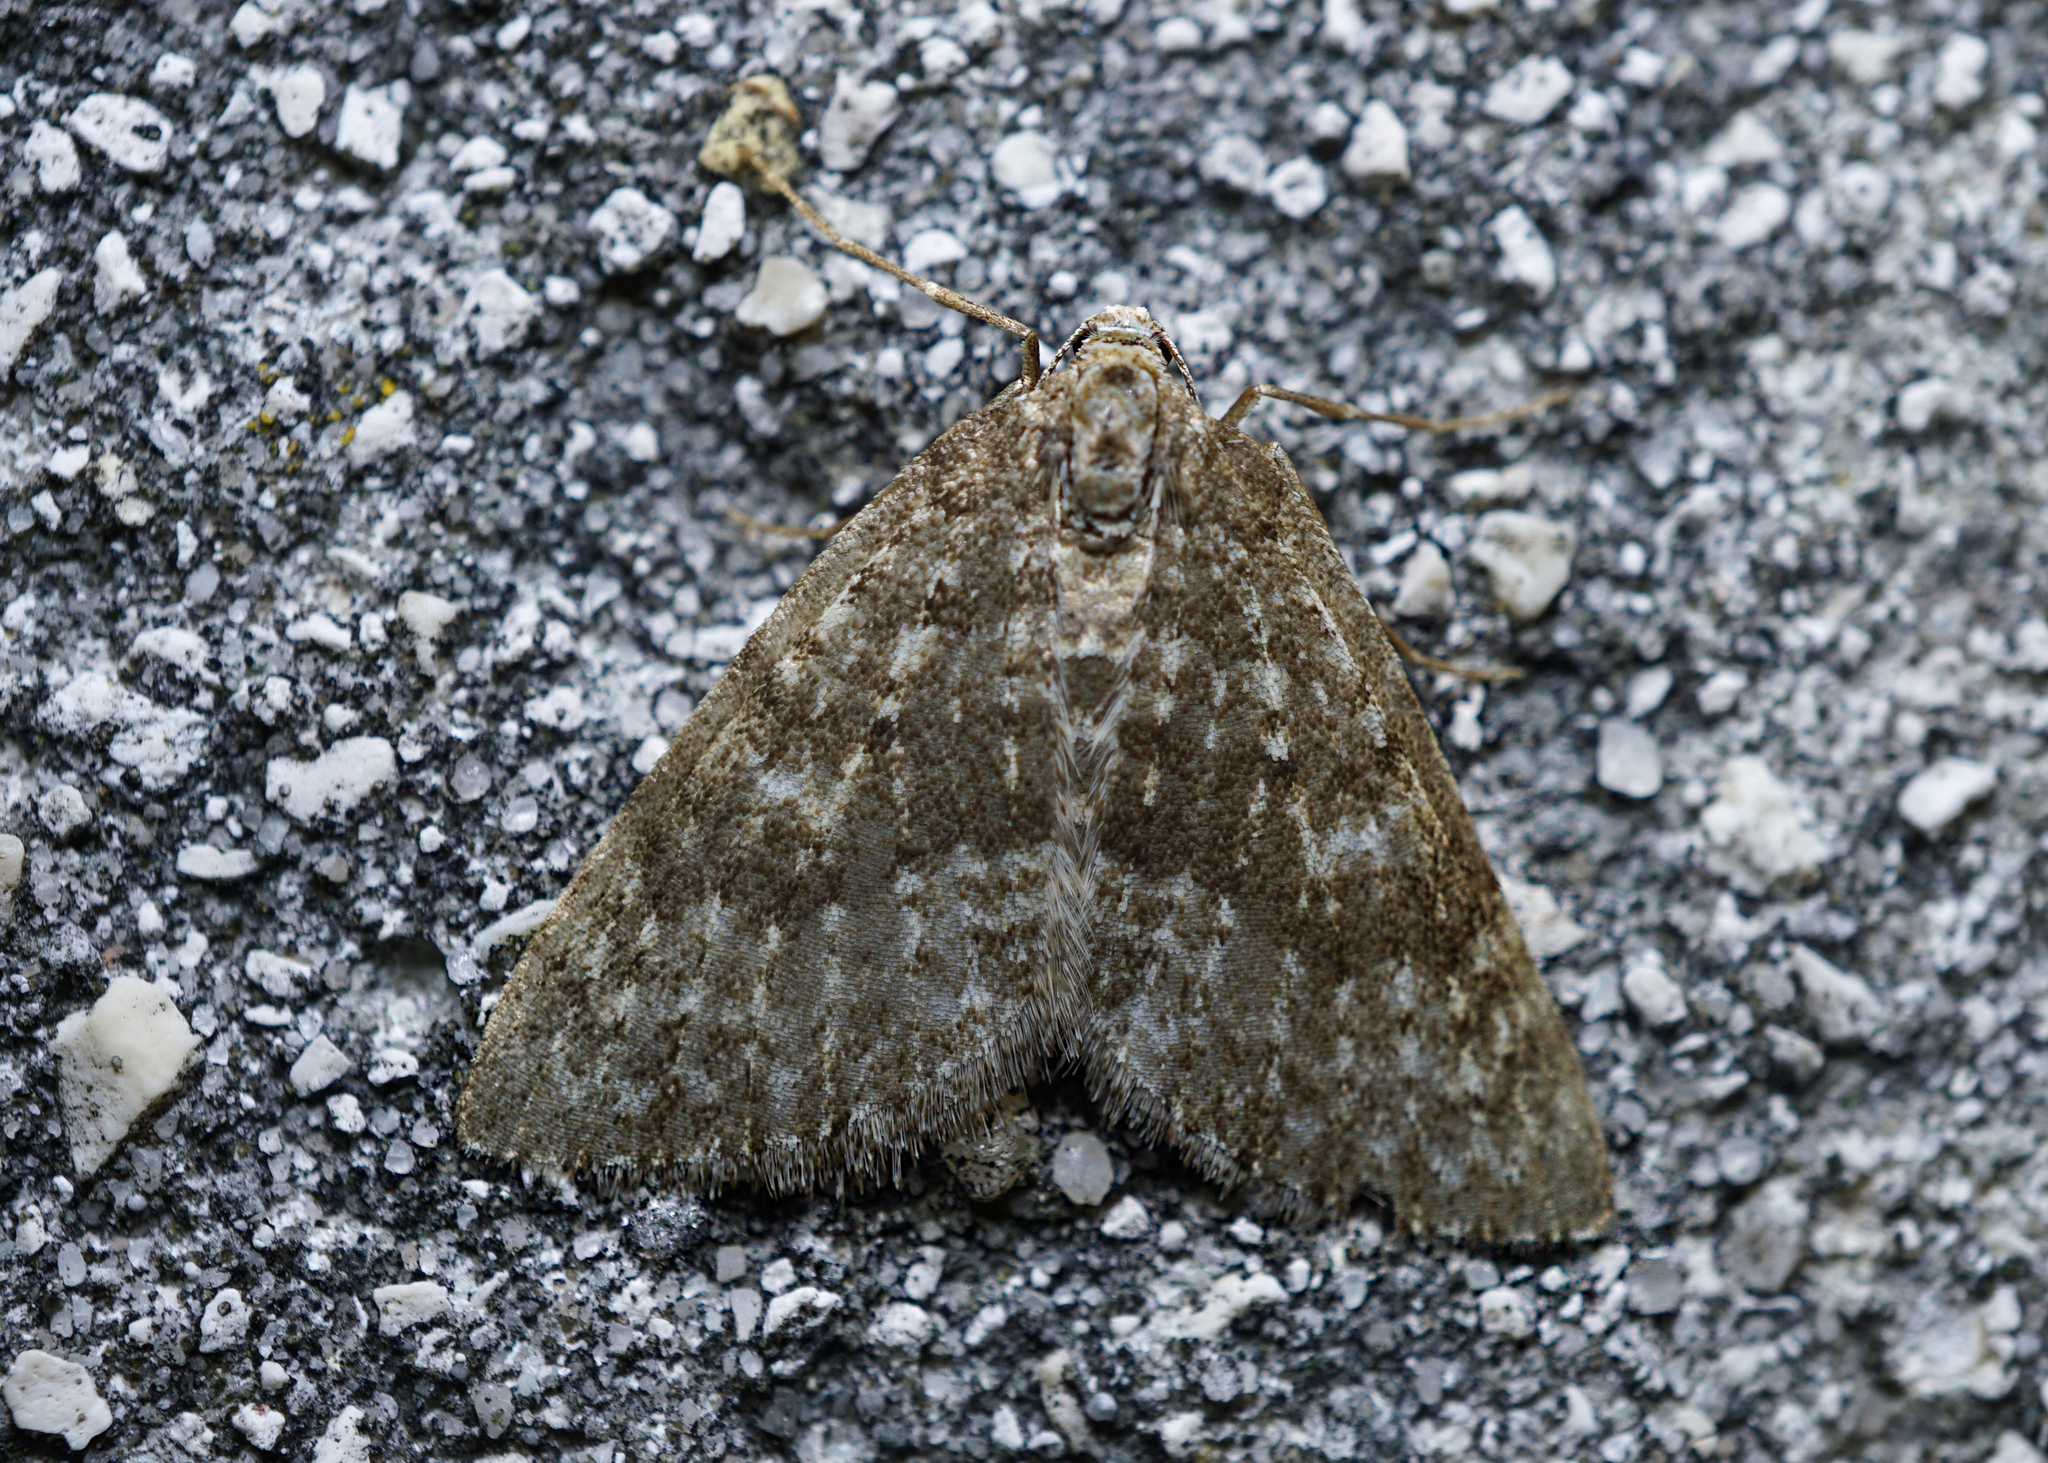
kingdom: Animalia
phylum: Arthropoda
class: Insecta
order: Lepidoptera
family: Geometridae
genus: Colostygia
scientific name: Colostygia multistrigaria
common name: Mottled grey
